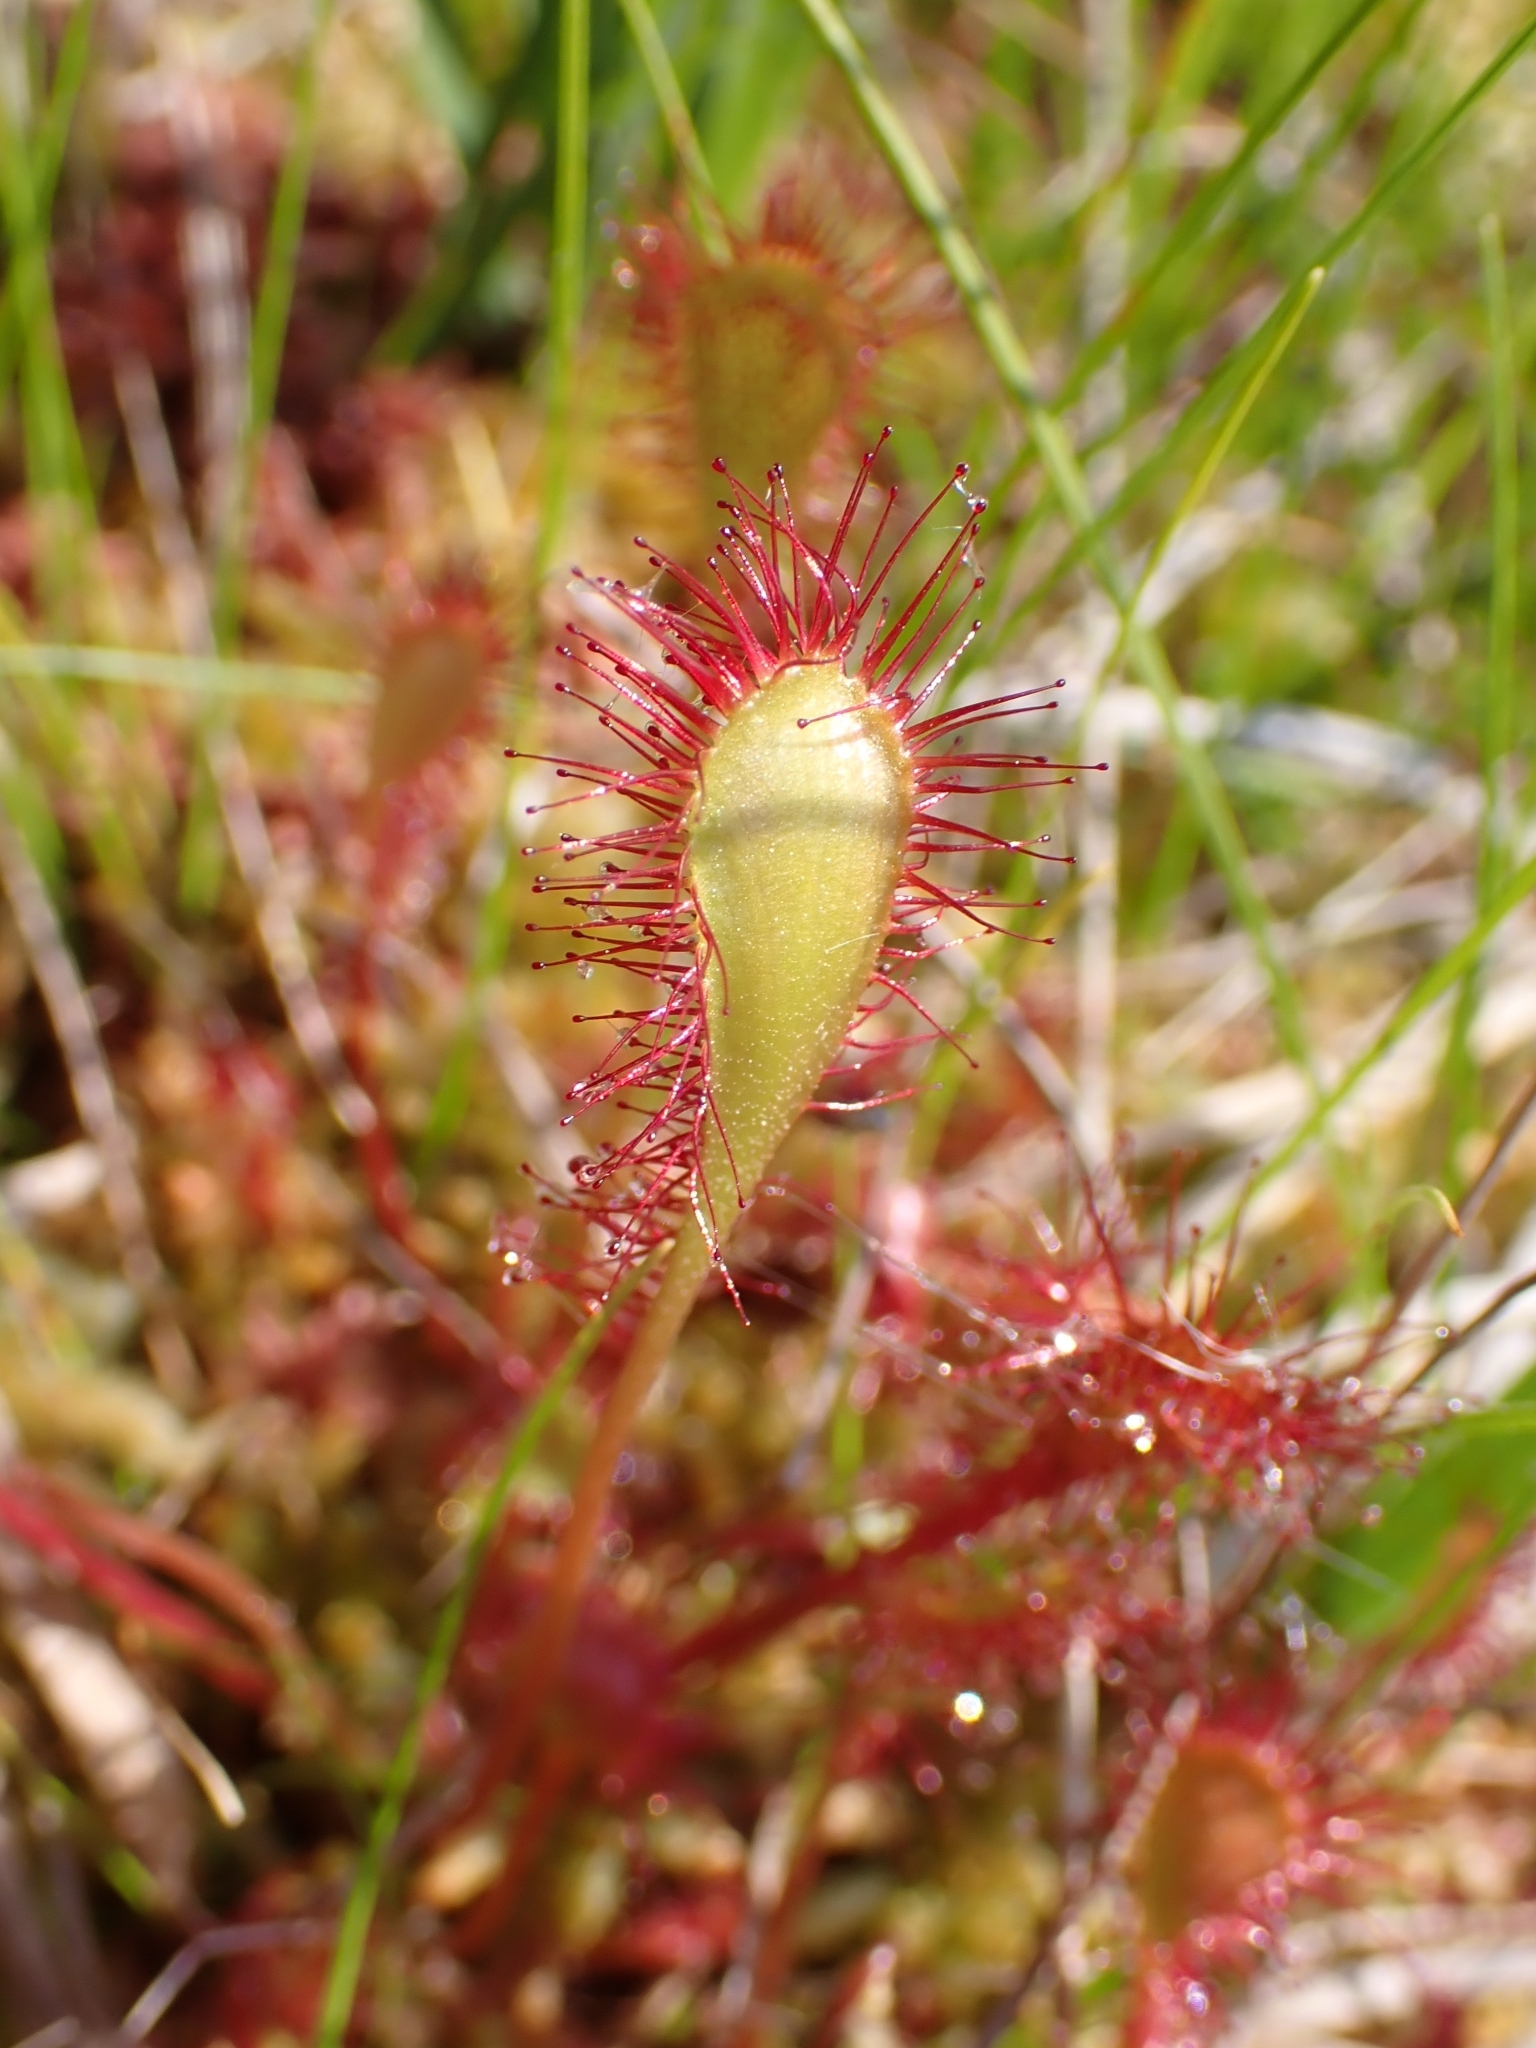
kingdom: Plantae
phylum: Tracheophyta
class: Magnoliopsida
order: Caryophyllales
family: Droseraceae
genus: Drosera
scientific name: Drosera obovata
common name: Ivan's paddle
